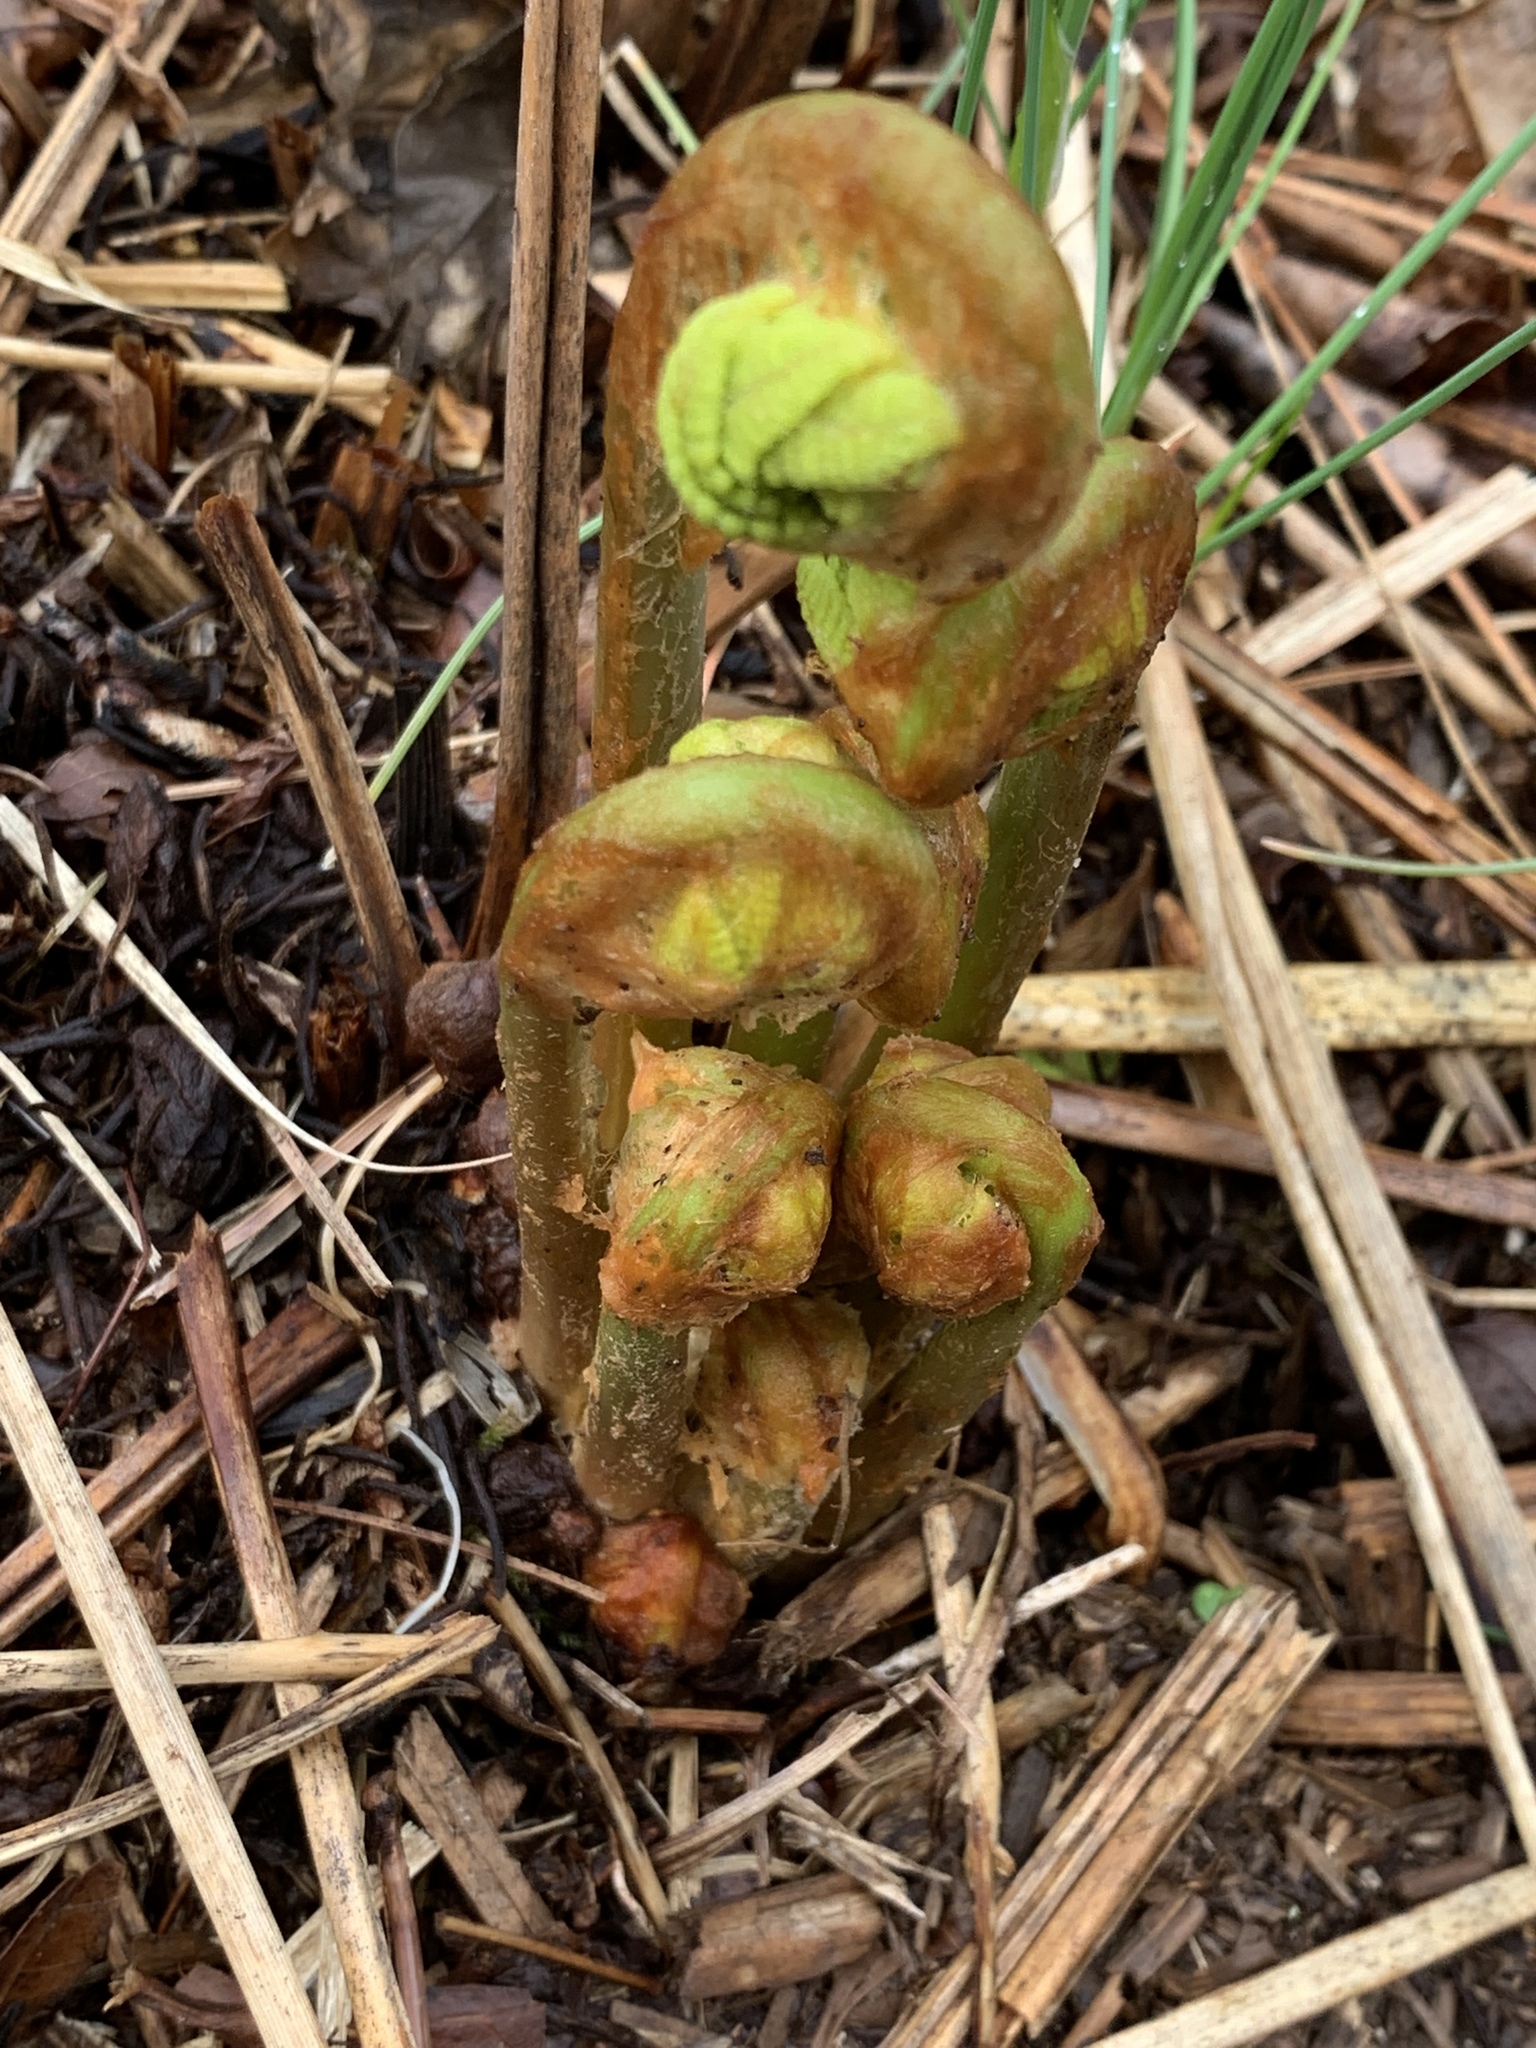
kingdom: Plantae
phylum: Tracheophyta
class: Polypodiopsida
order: Osmundales
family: Osmundaceae
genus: Claytosmunda
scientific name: Claytosmunda claytoniana
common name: Clayton's fern
